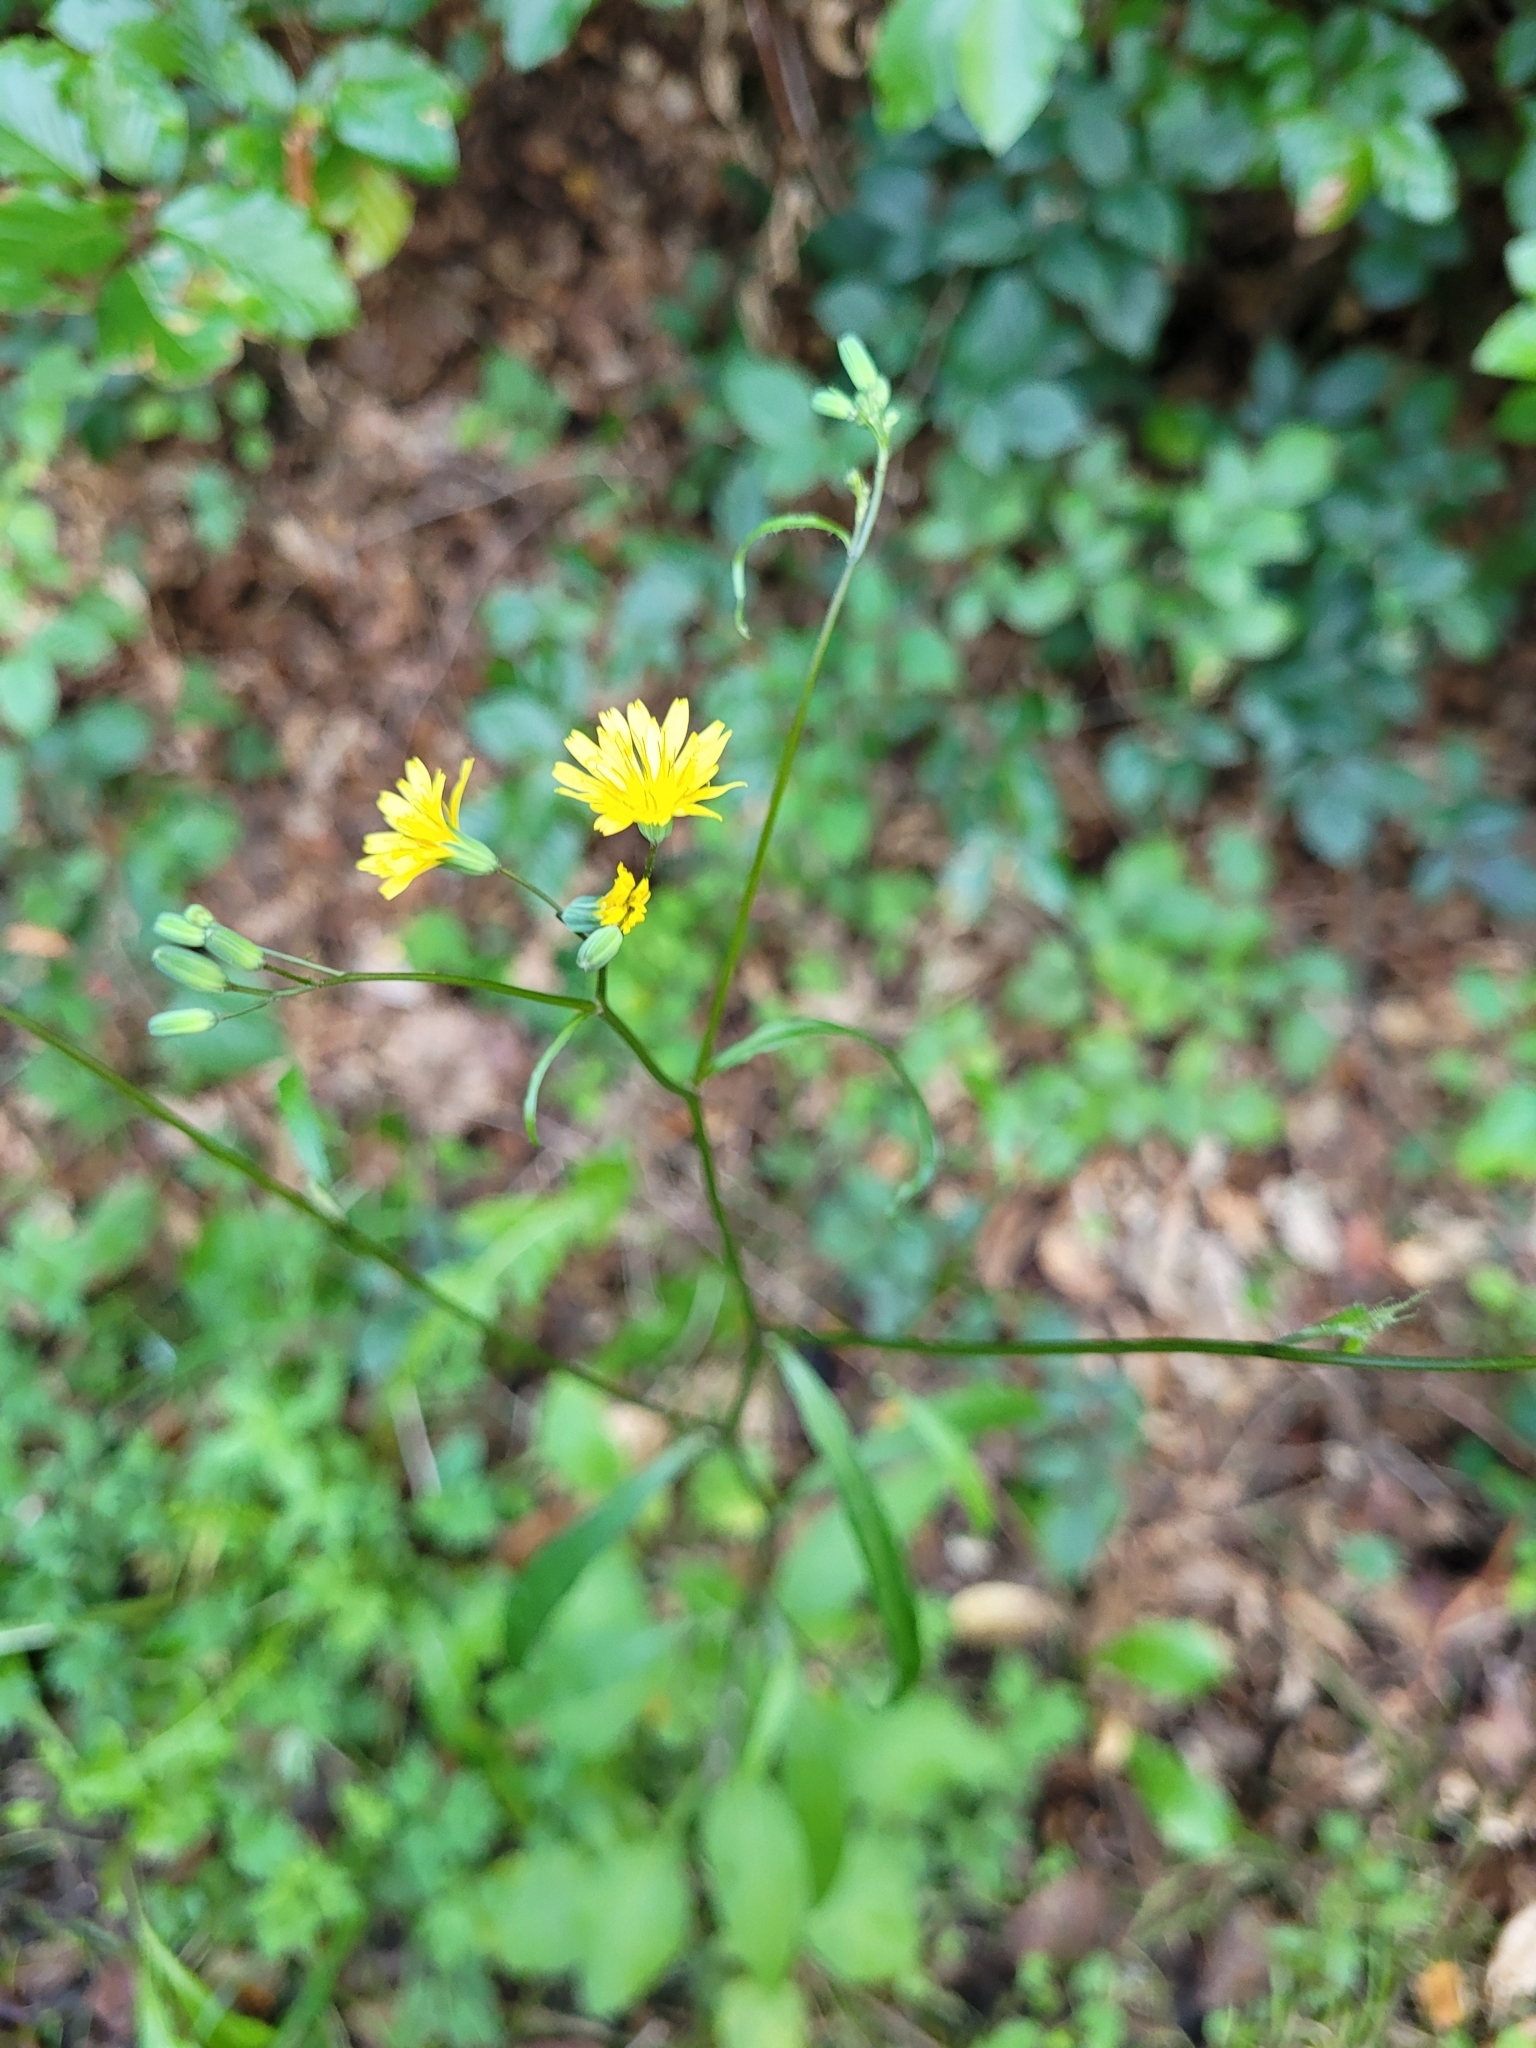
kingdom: Plantae
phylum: Tracheophyta
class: Magnoliopsida
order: Asterales
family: Asteraceae
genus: Lapsana
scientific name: Lapsana communis
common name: Nipplewort
